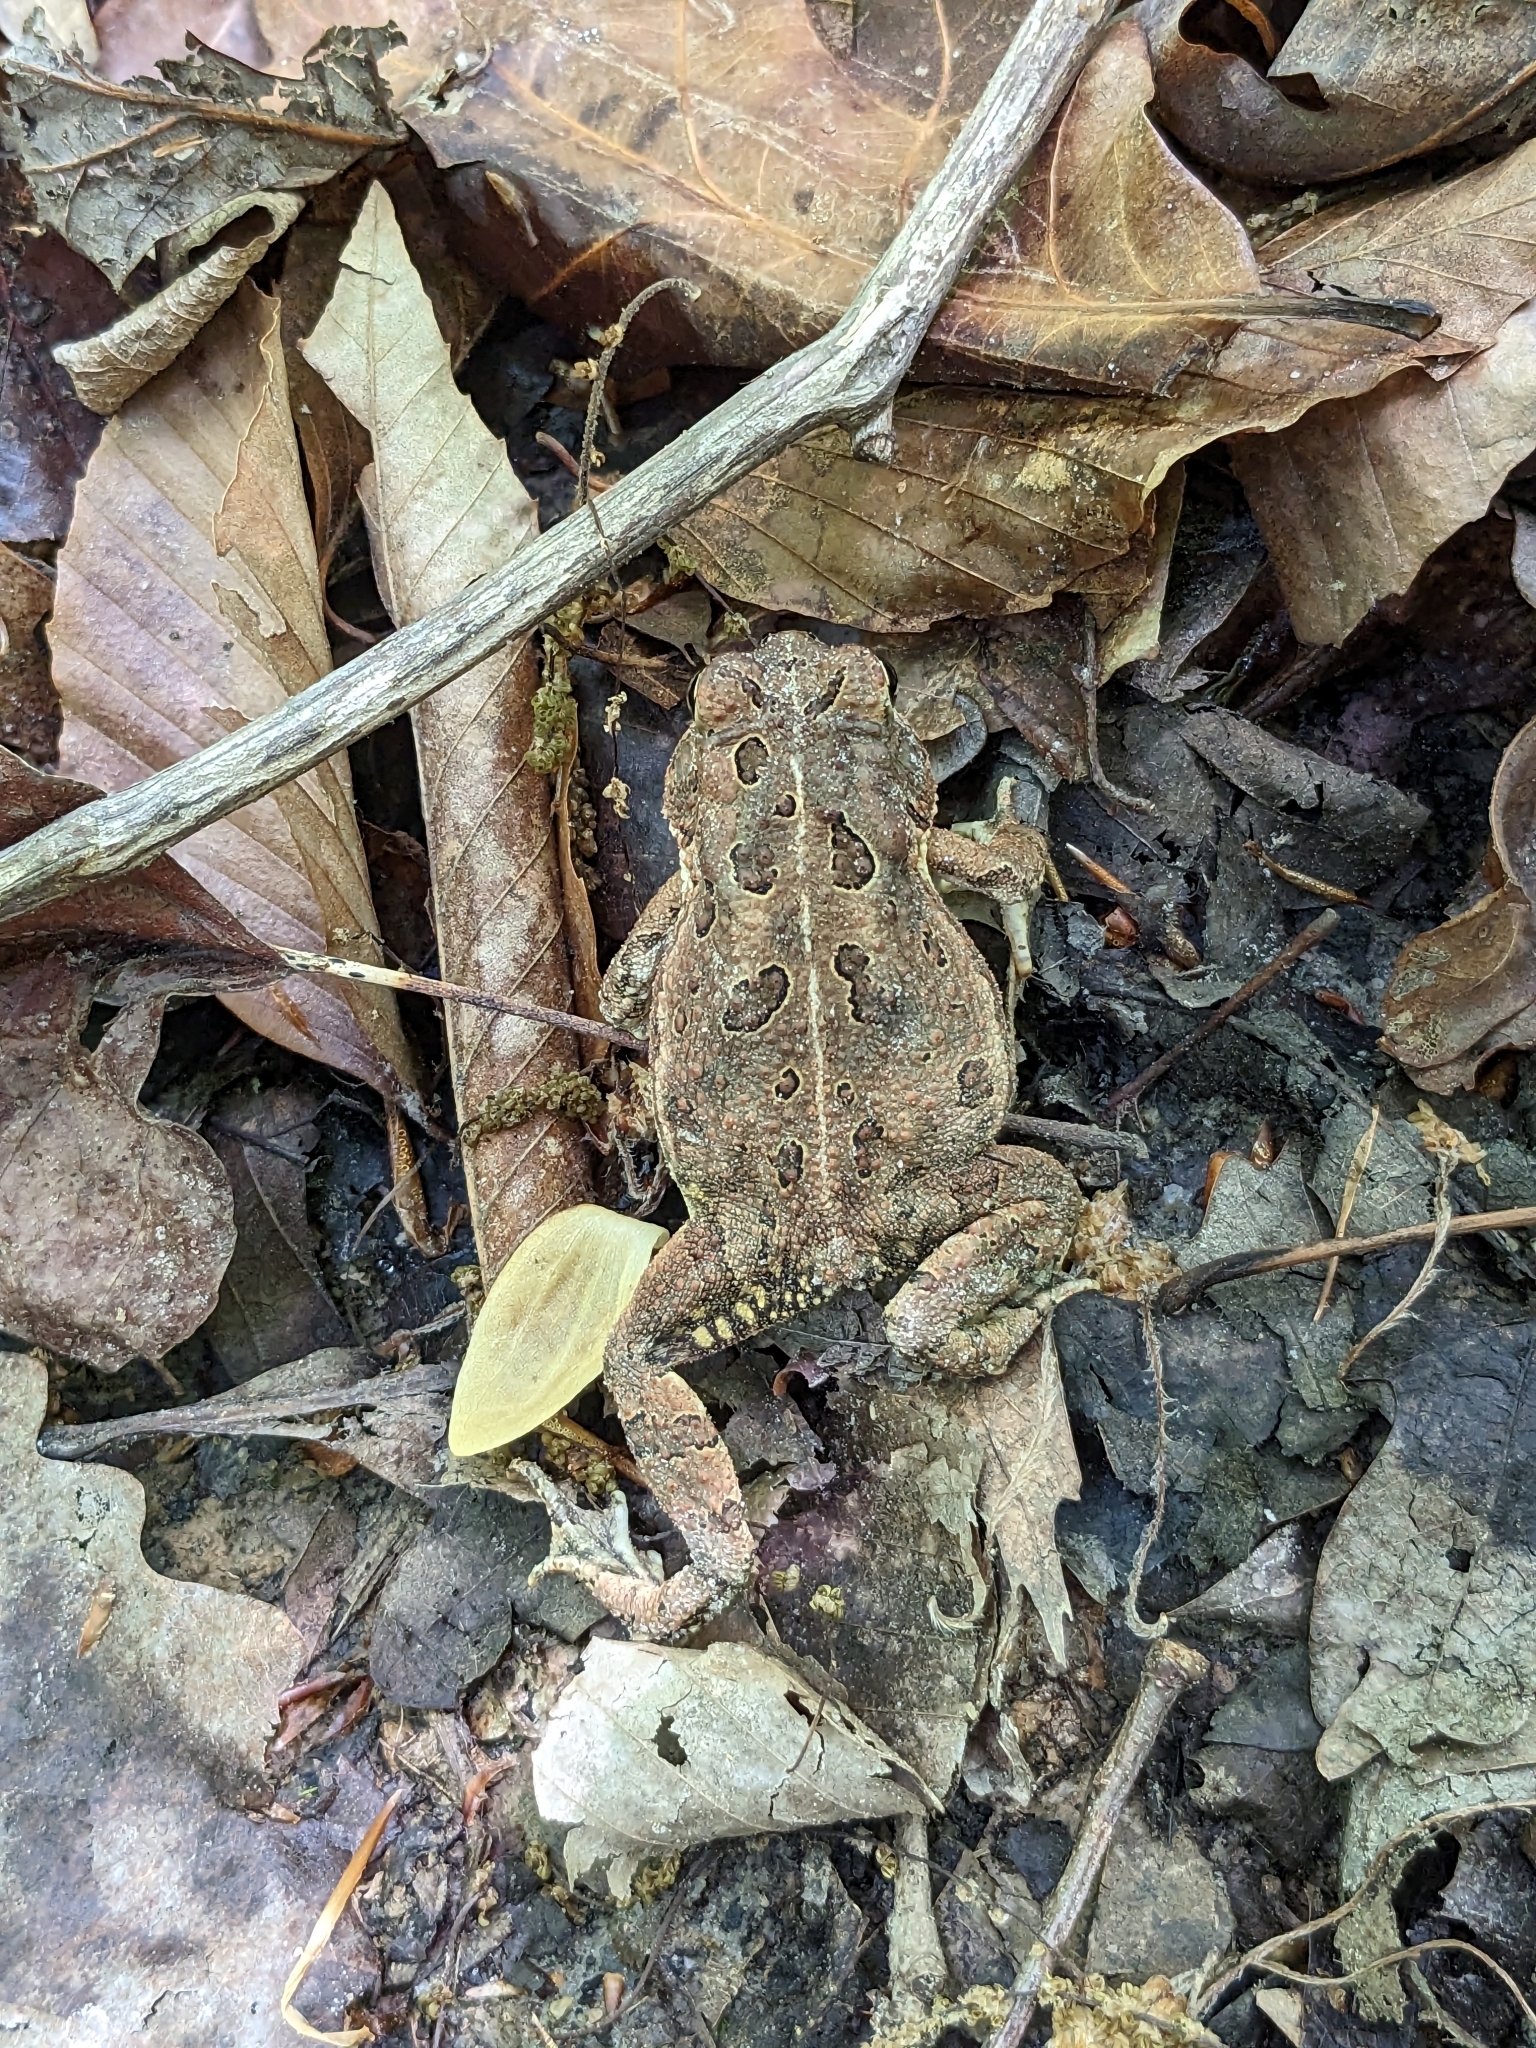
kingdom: Animalia
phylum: Chordata
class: Amphibia
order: Anura
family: Bufonidae
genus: Anaxyrus
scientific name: Anaxyrus fowleri
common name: Fowler's toad
